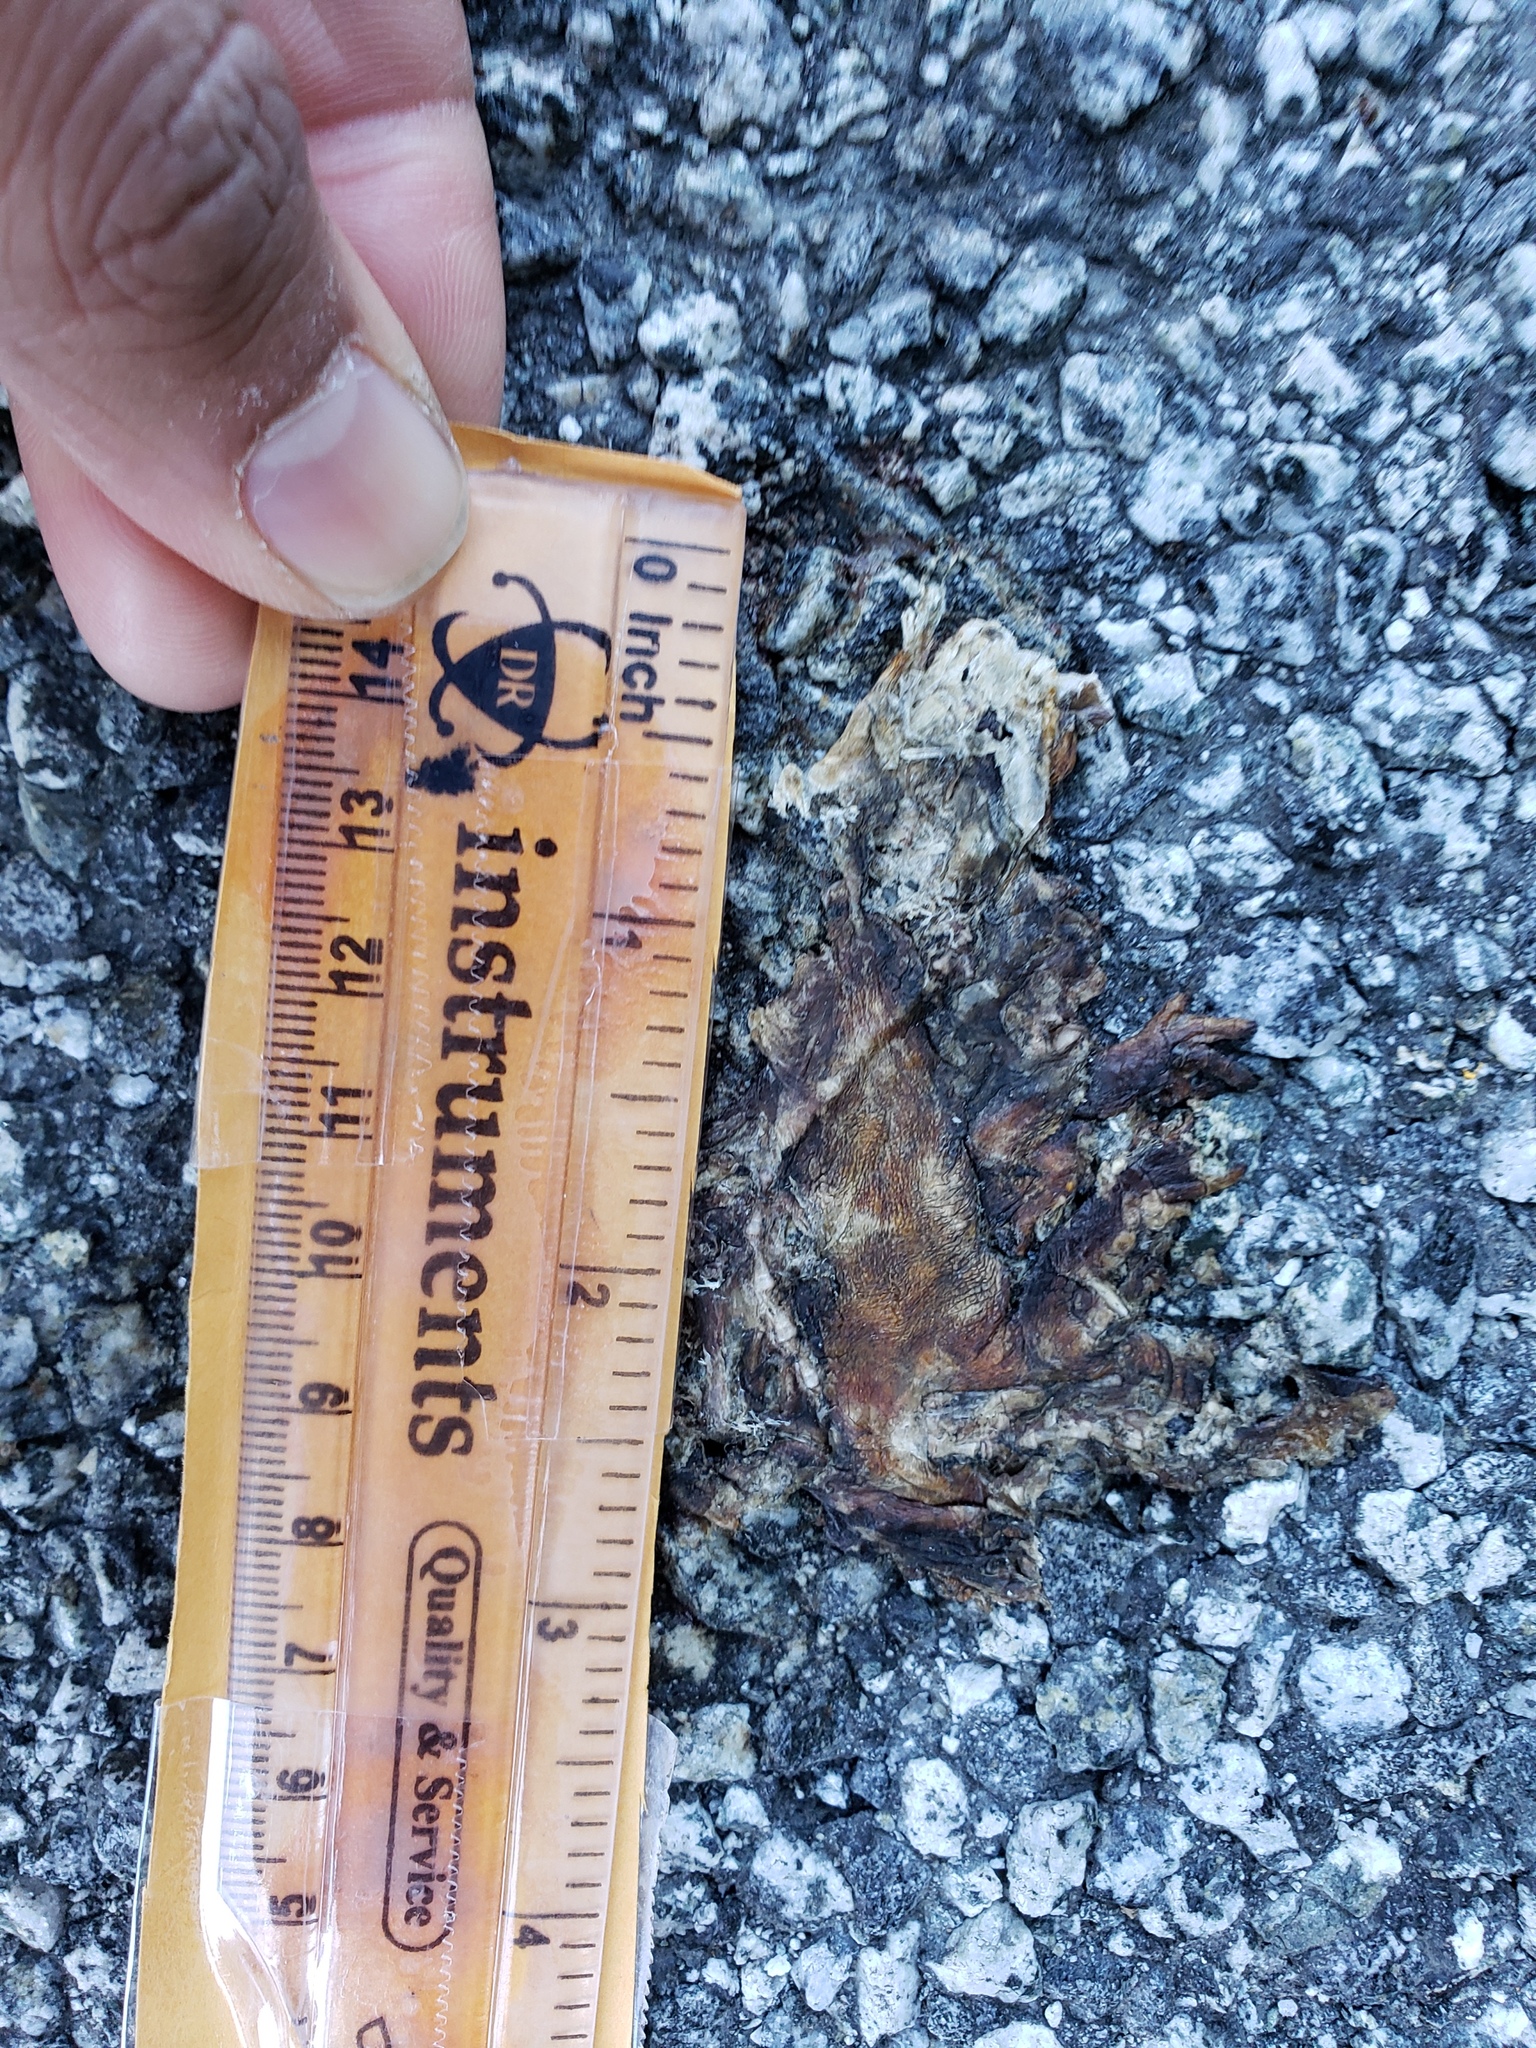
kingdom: Animalia
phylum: Chordata
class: Amphibia
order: Caudata
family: Salamandridae
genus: Taricha
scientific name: Taricha
